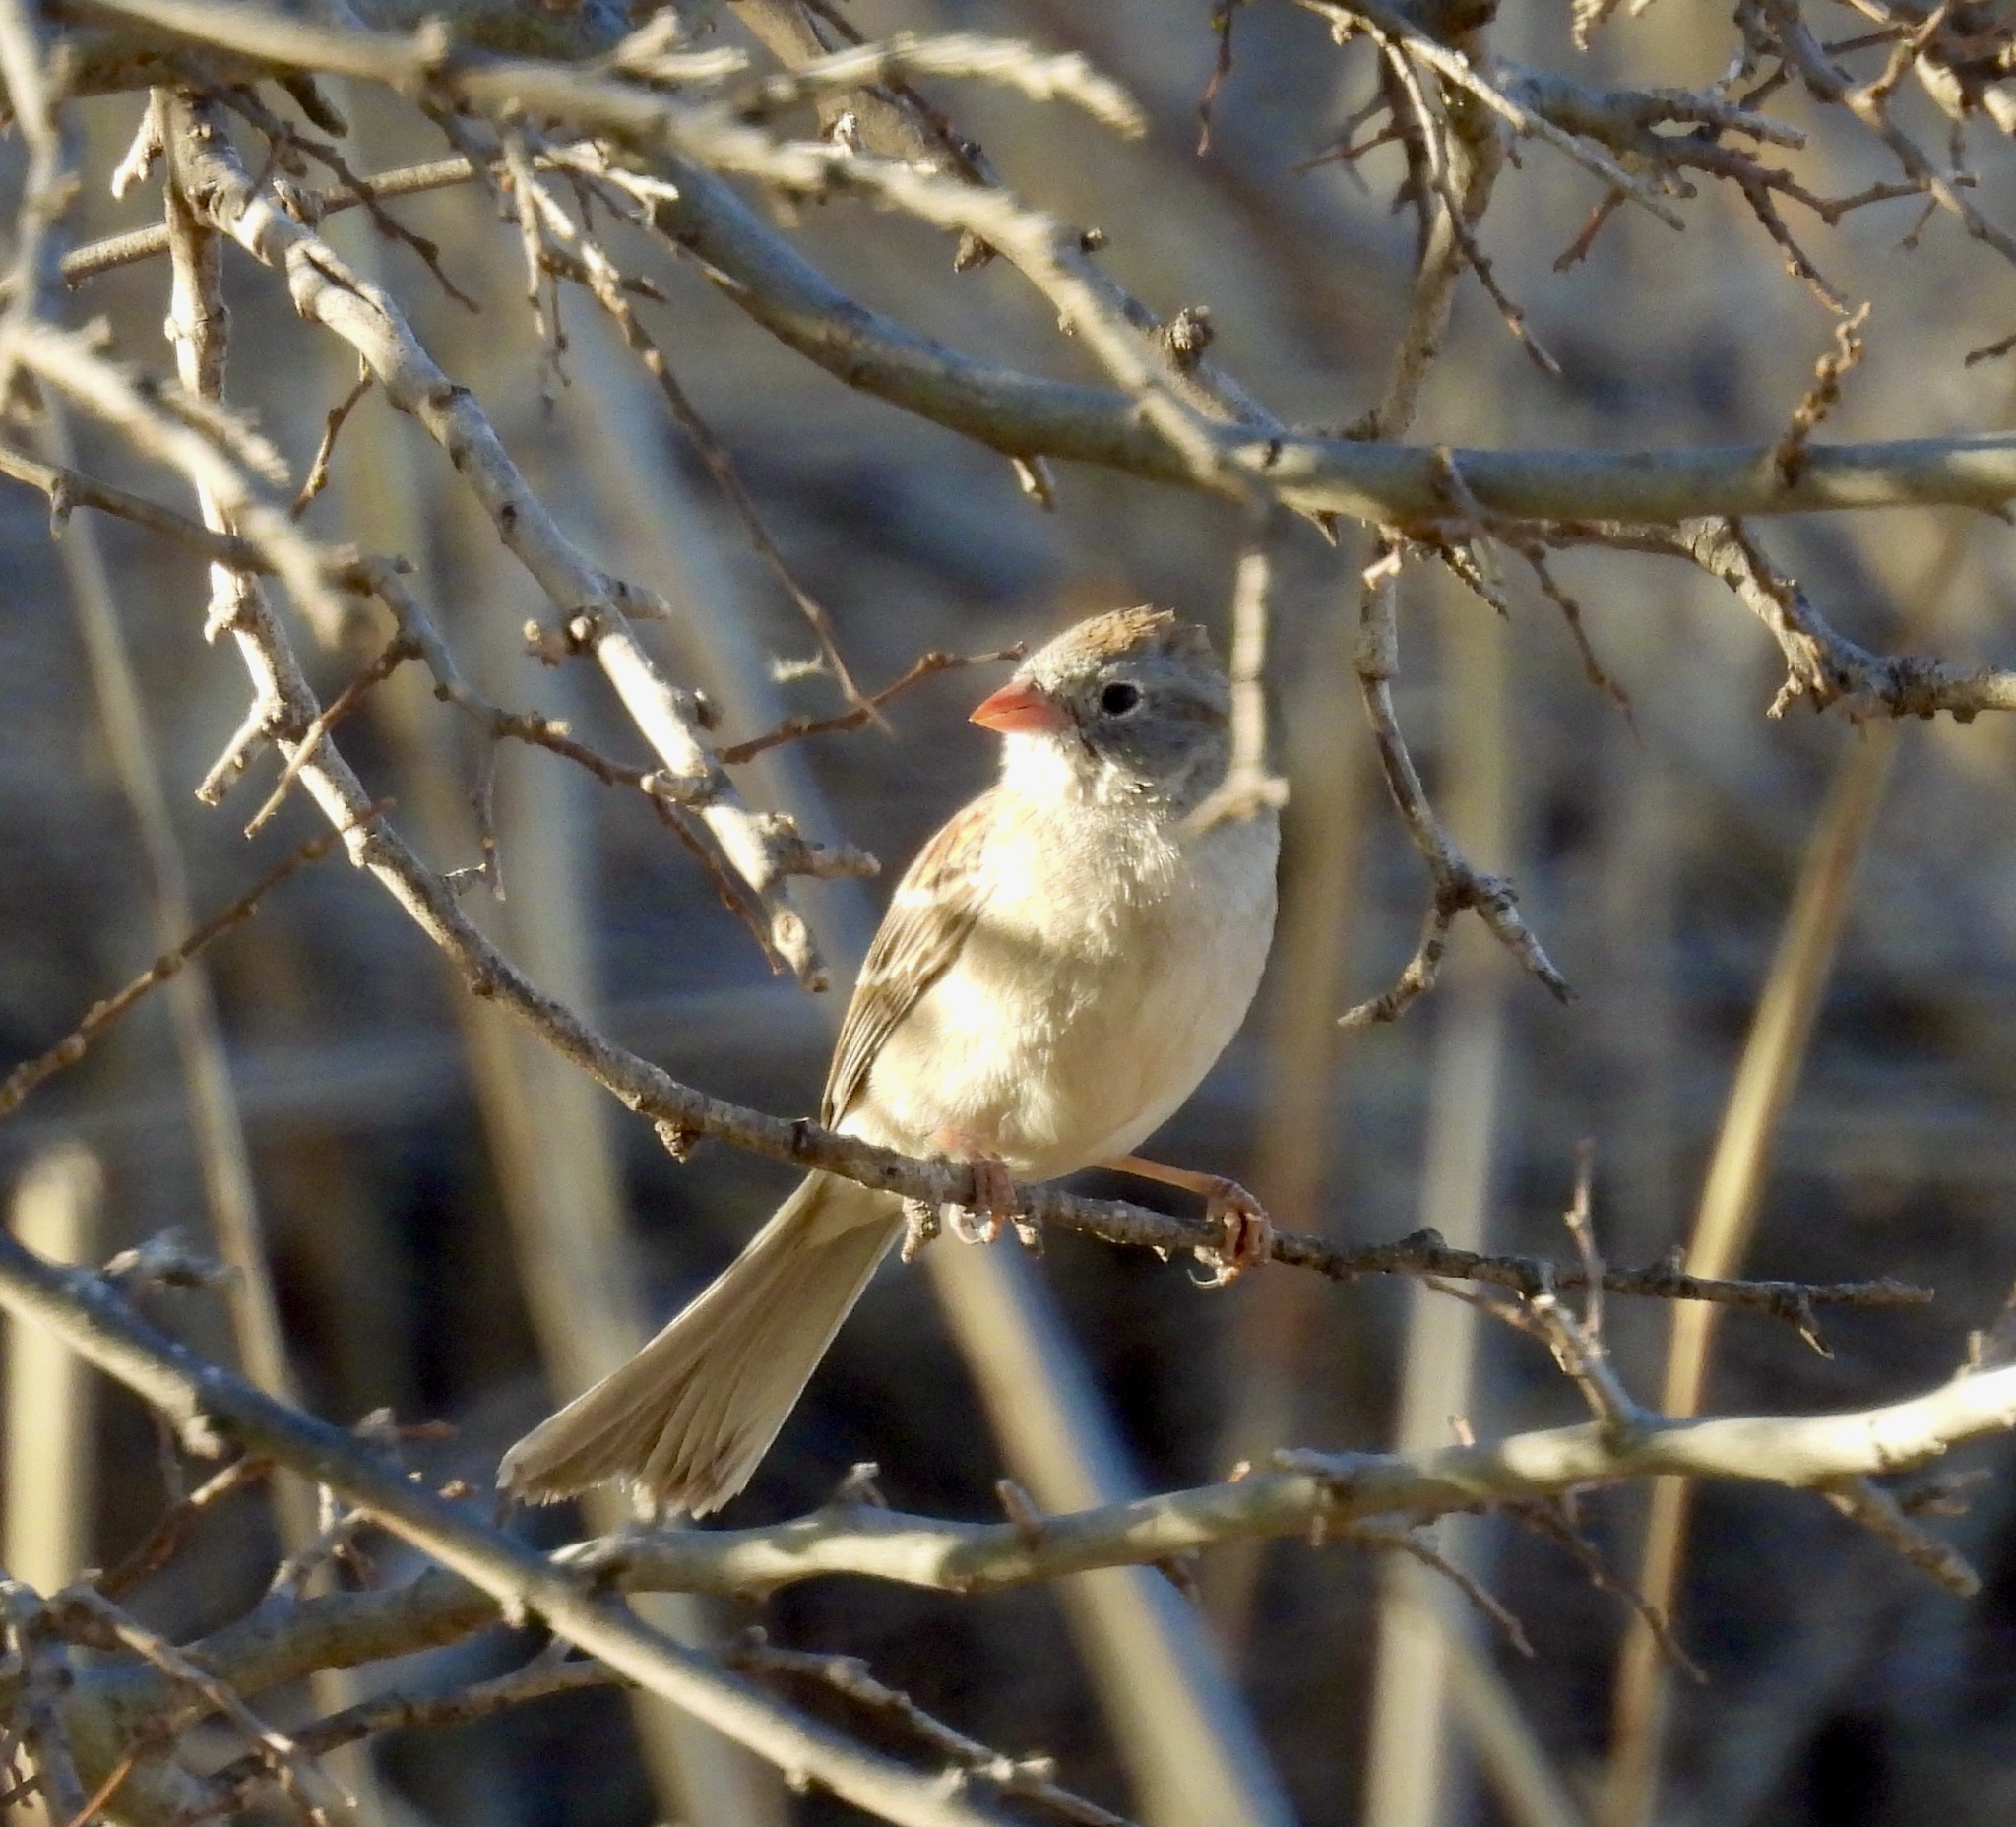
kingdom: Animalia
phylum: Chordata
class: Aves
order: Passeriformes
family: Passerellidae
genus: Spizella
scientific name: Spizella pusilla
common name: Field sparrow
